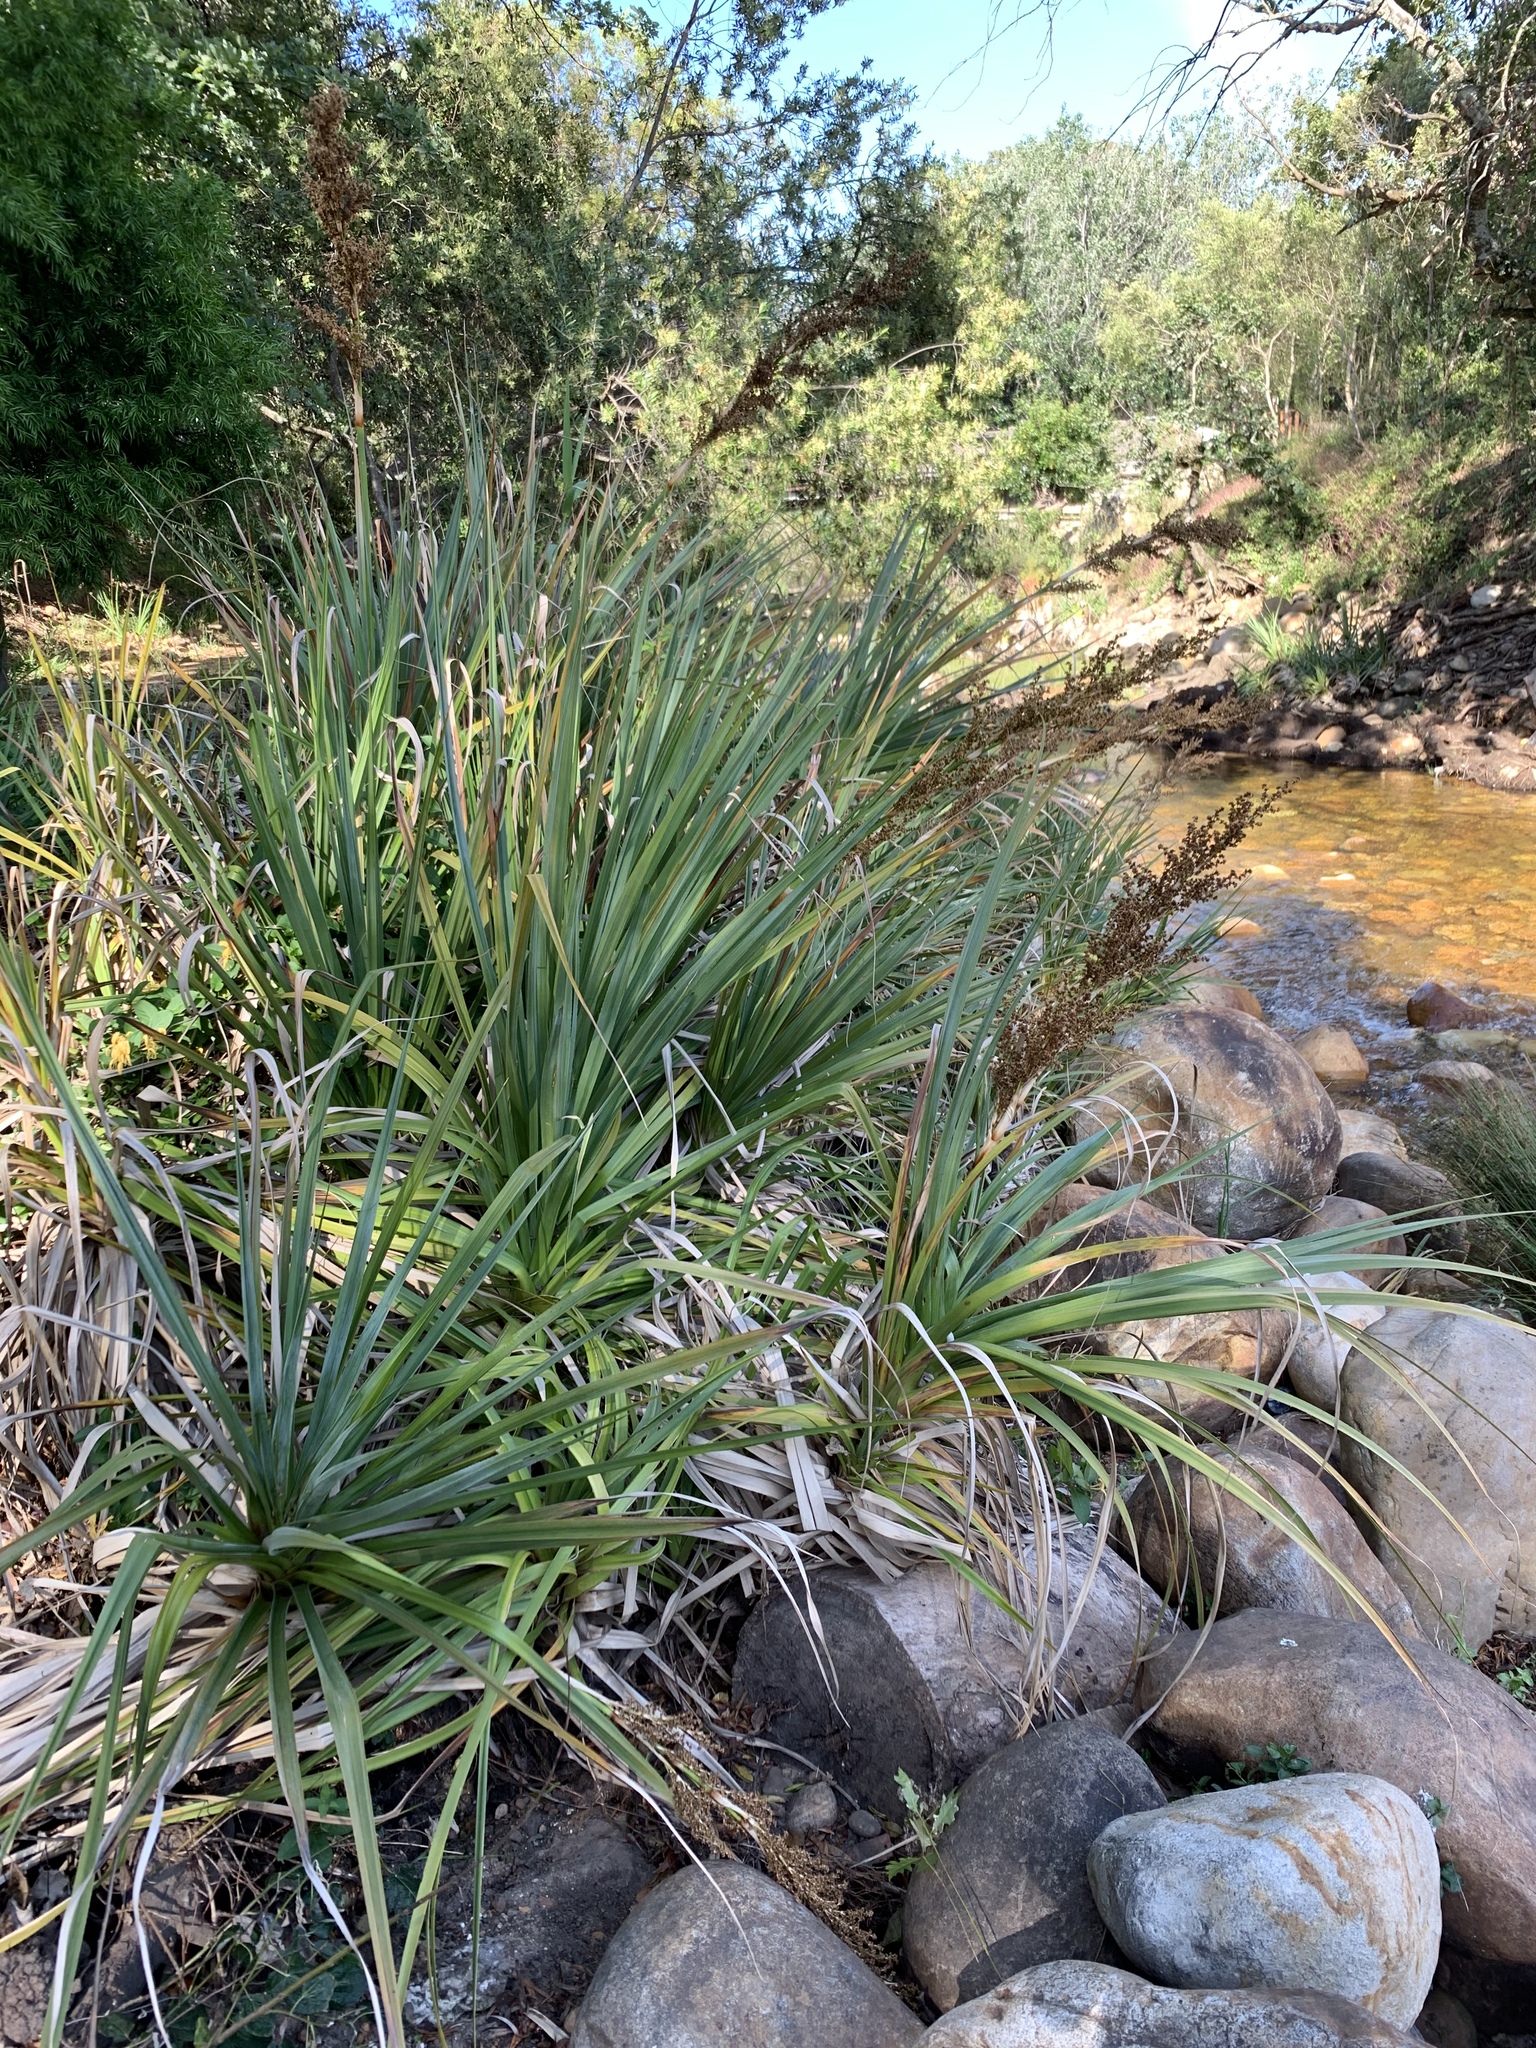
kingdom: Plantae
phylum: Tracheophyta
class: Liliopsida
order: Poales
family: Thurniaceae
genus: Prionium
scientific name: Prionium serratum
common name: Palmiet
